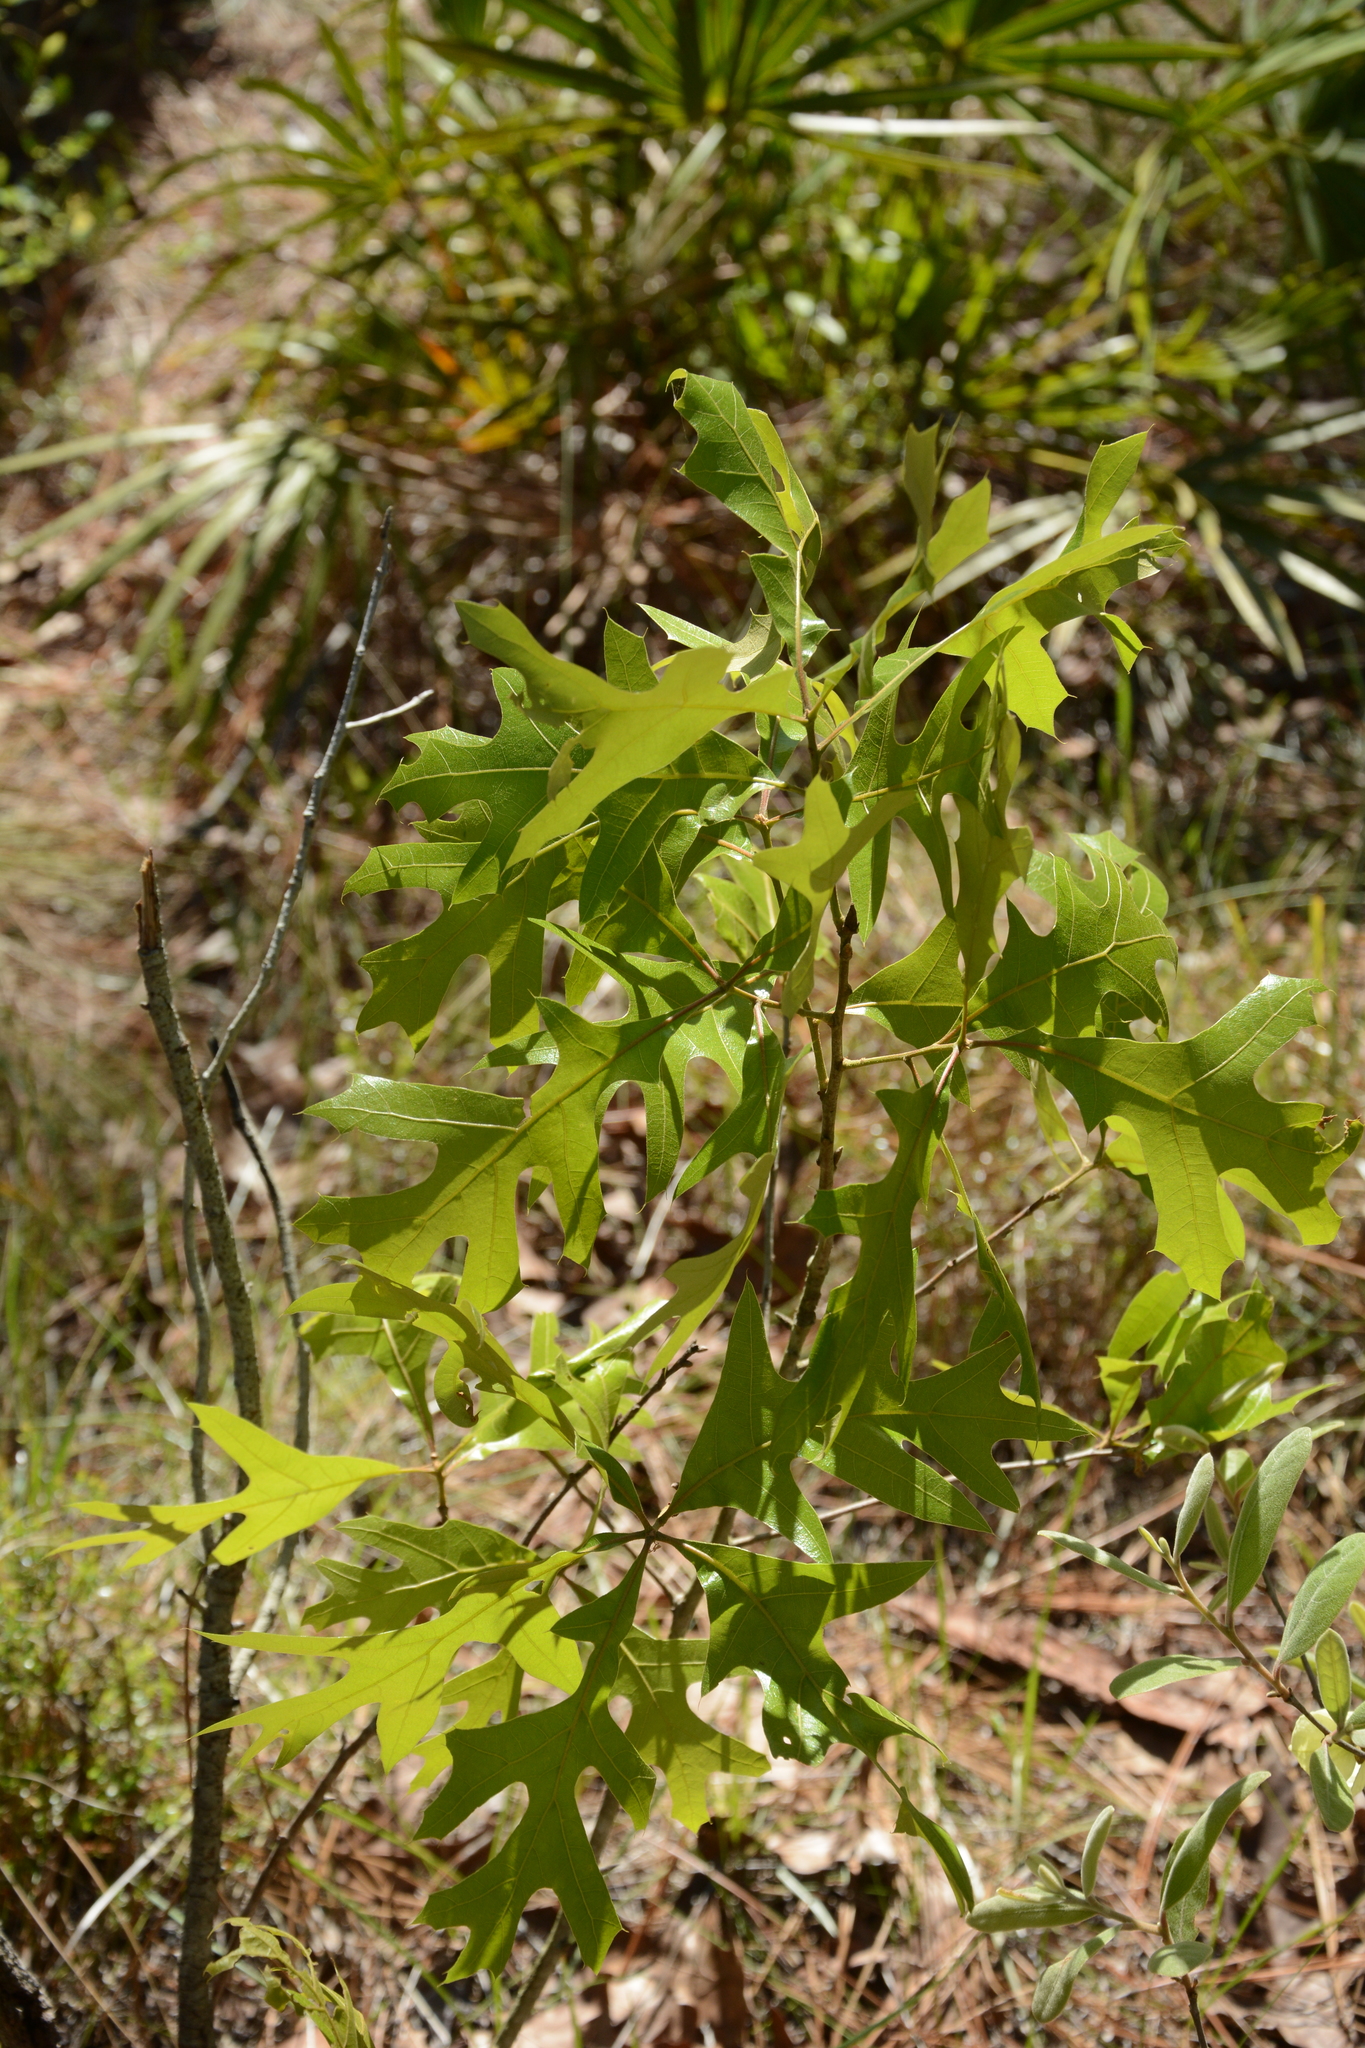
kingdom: Plantae
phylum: Tracheophyta
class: Magnoliopsida
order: Fagales
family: Fagaceae
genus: Quercus
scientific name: Quercus laevis
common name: Turkey oak
